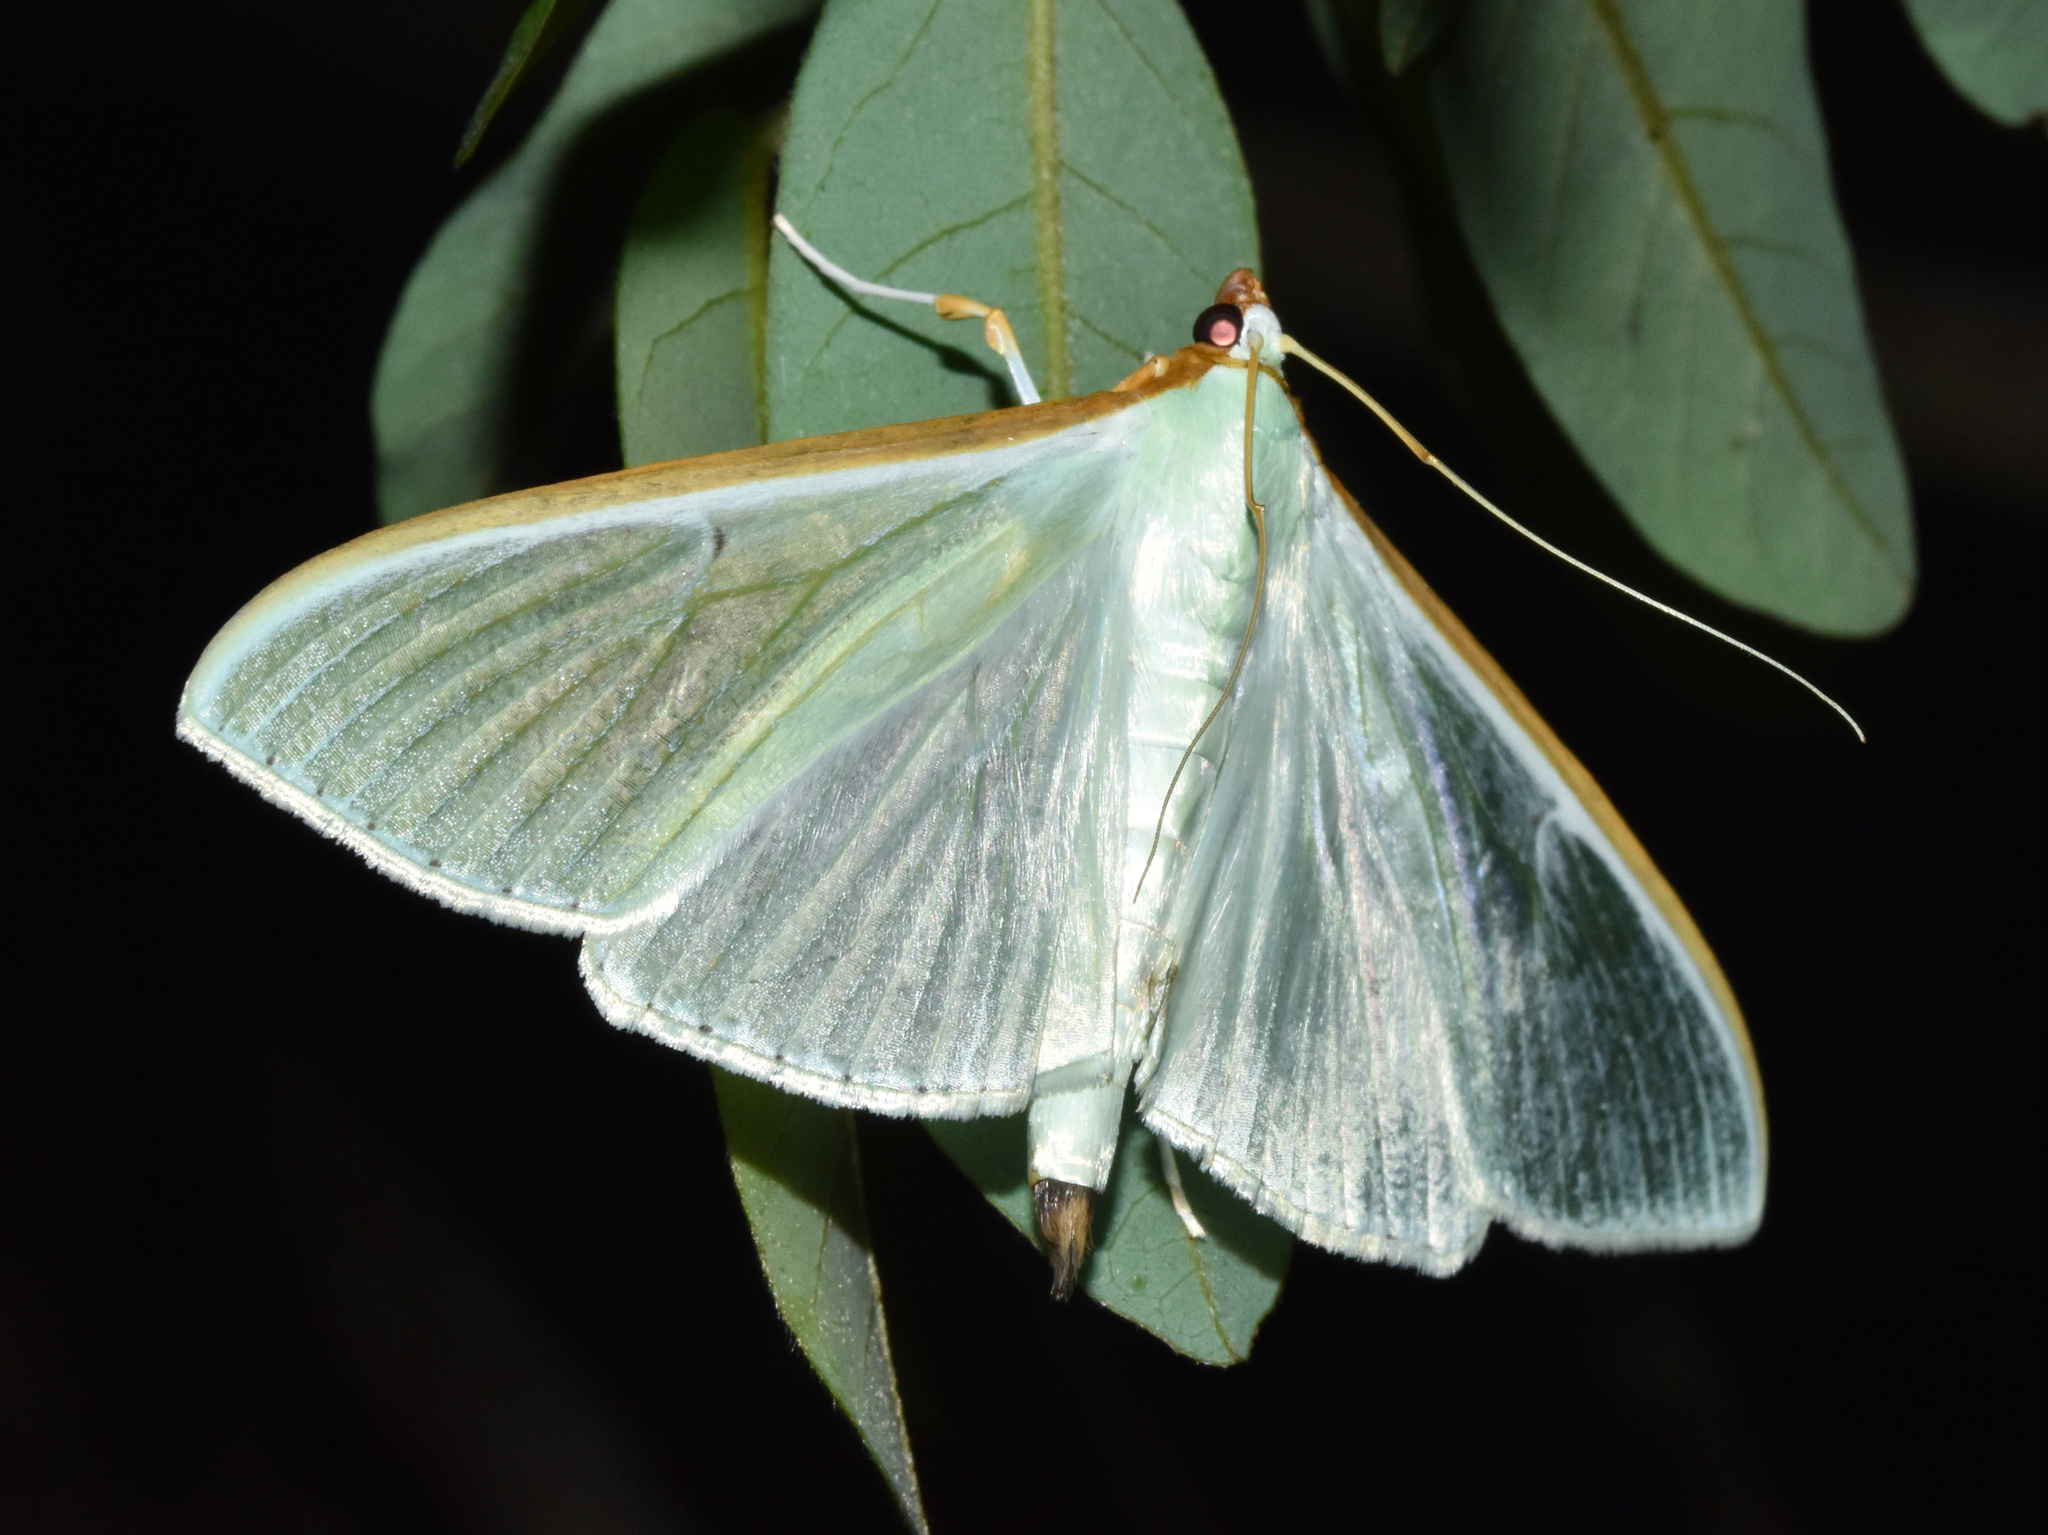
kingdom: Animalia
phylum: Arthropoda
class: Insecta
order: Lepidoptera
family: Crambidae
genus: Stemorrhages
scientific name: Stemorrhages sericea
